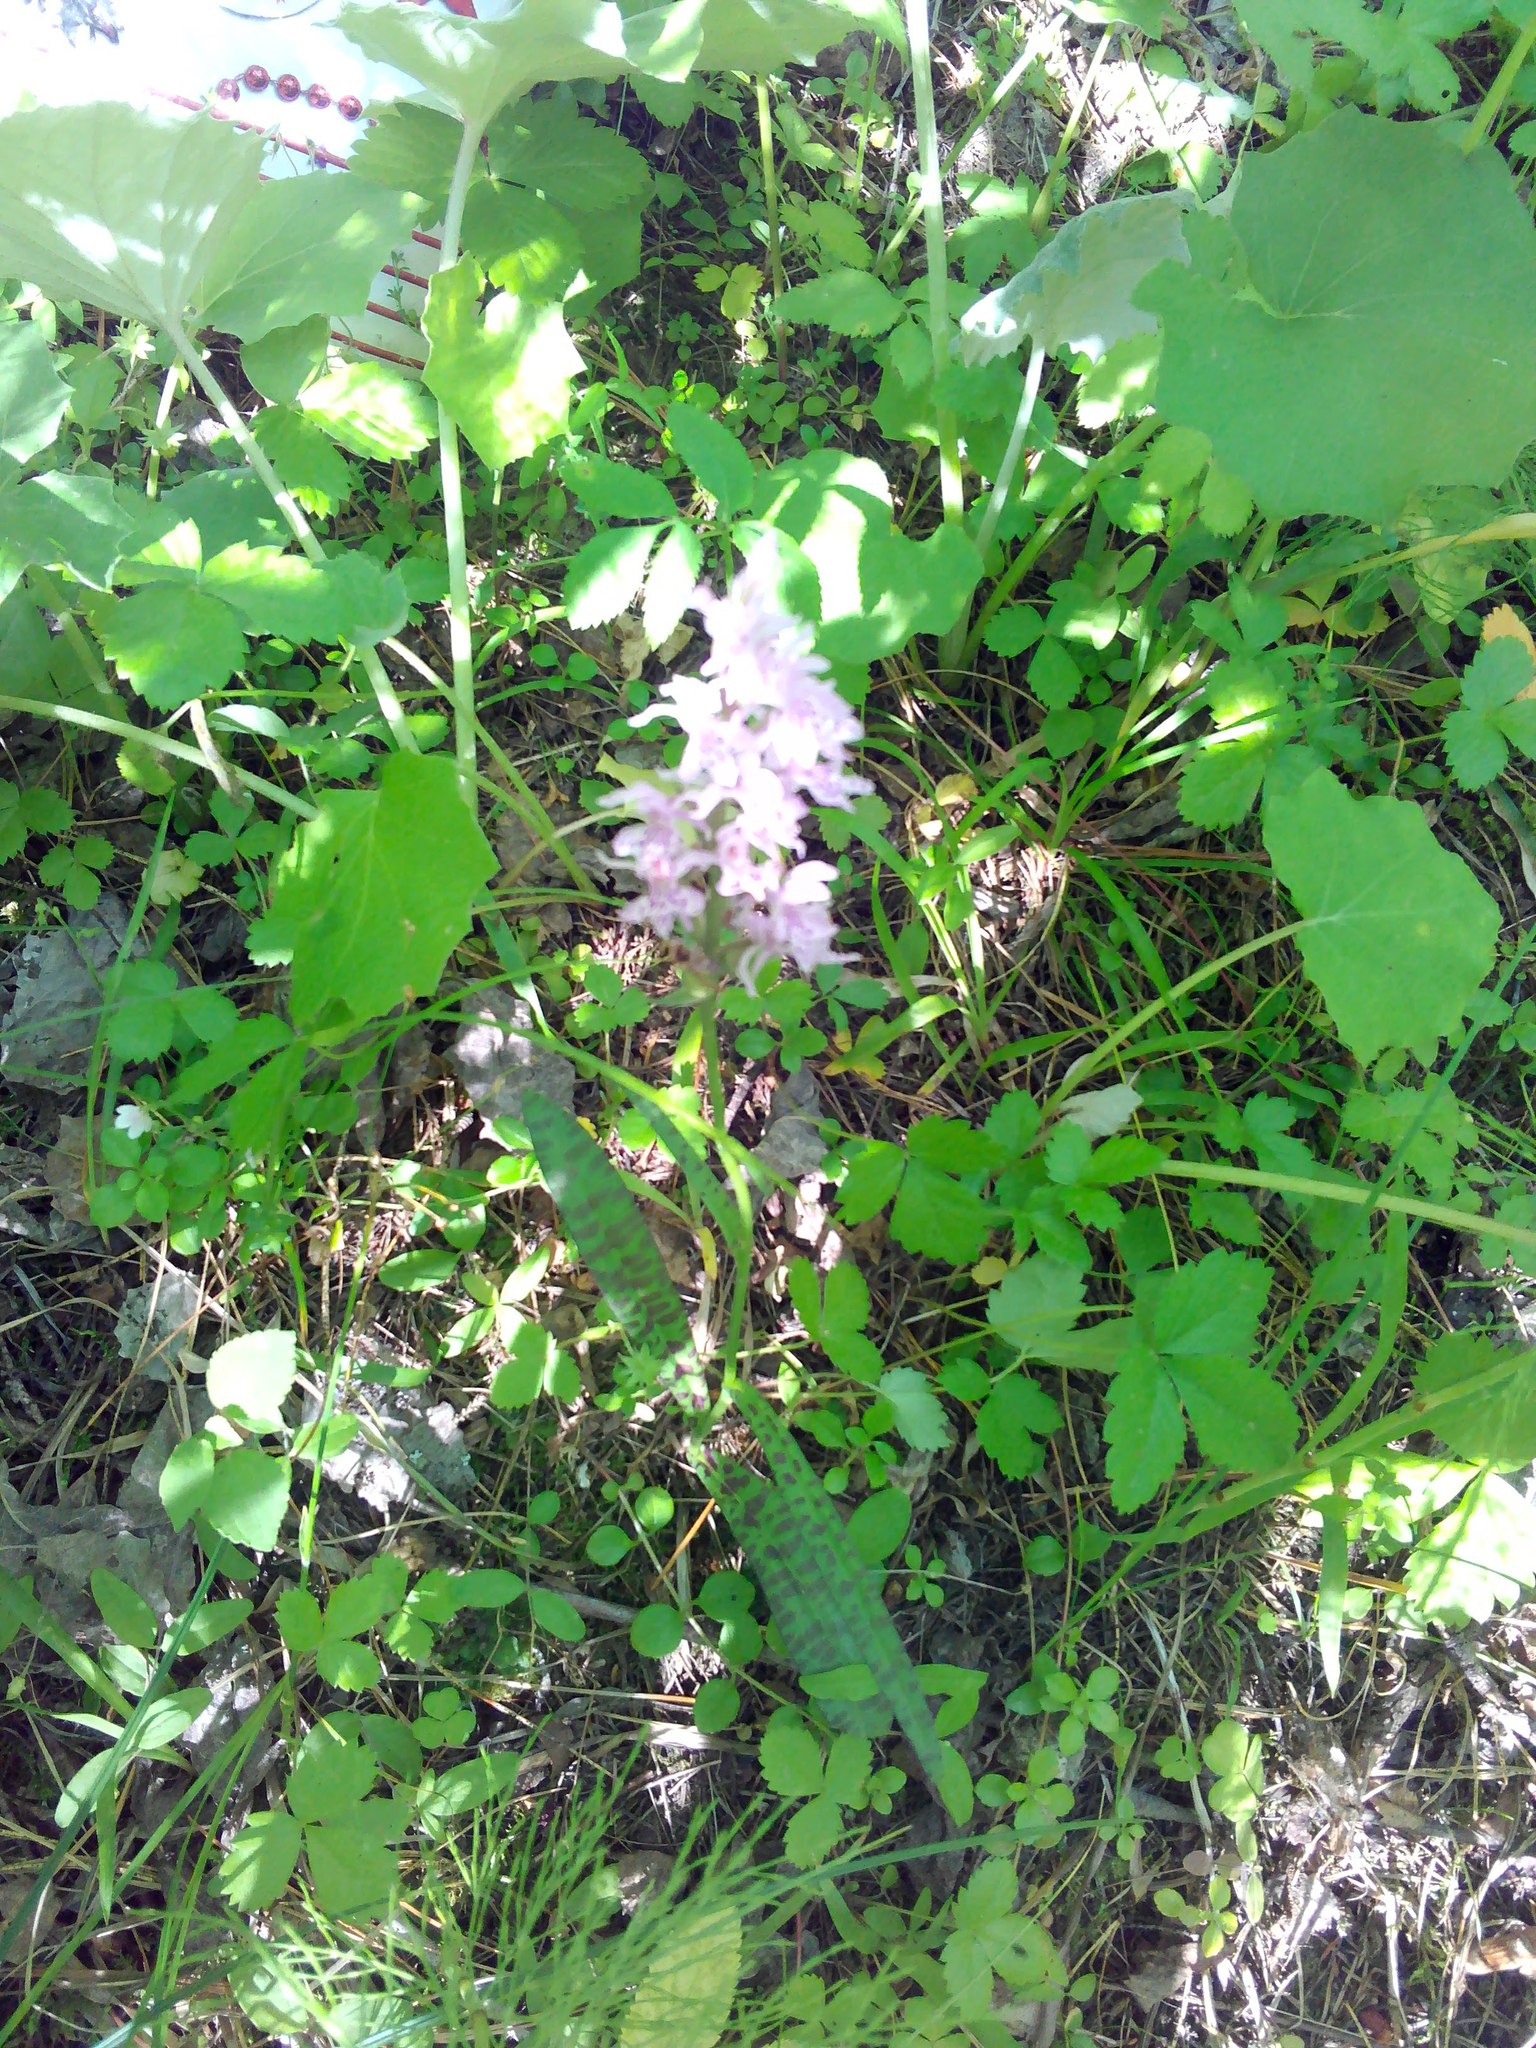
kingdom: Plantae
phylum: Tracheophyta
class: Liliopsida
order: Asparagales
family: Orchidaceae
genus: Dactylorhiza
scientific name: Dactylorhiza maculata
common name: Heath spotted-orchid
